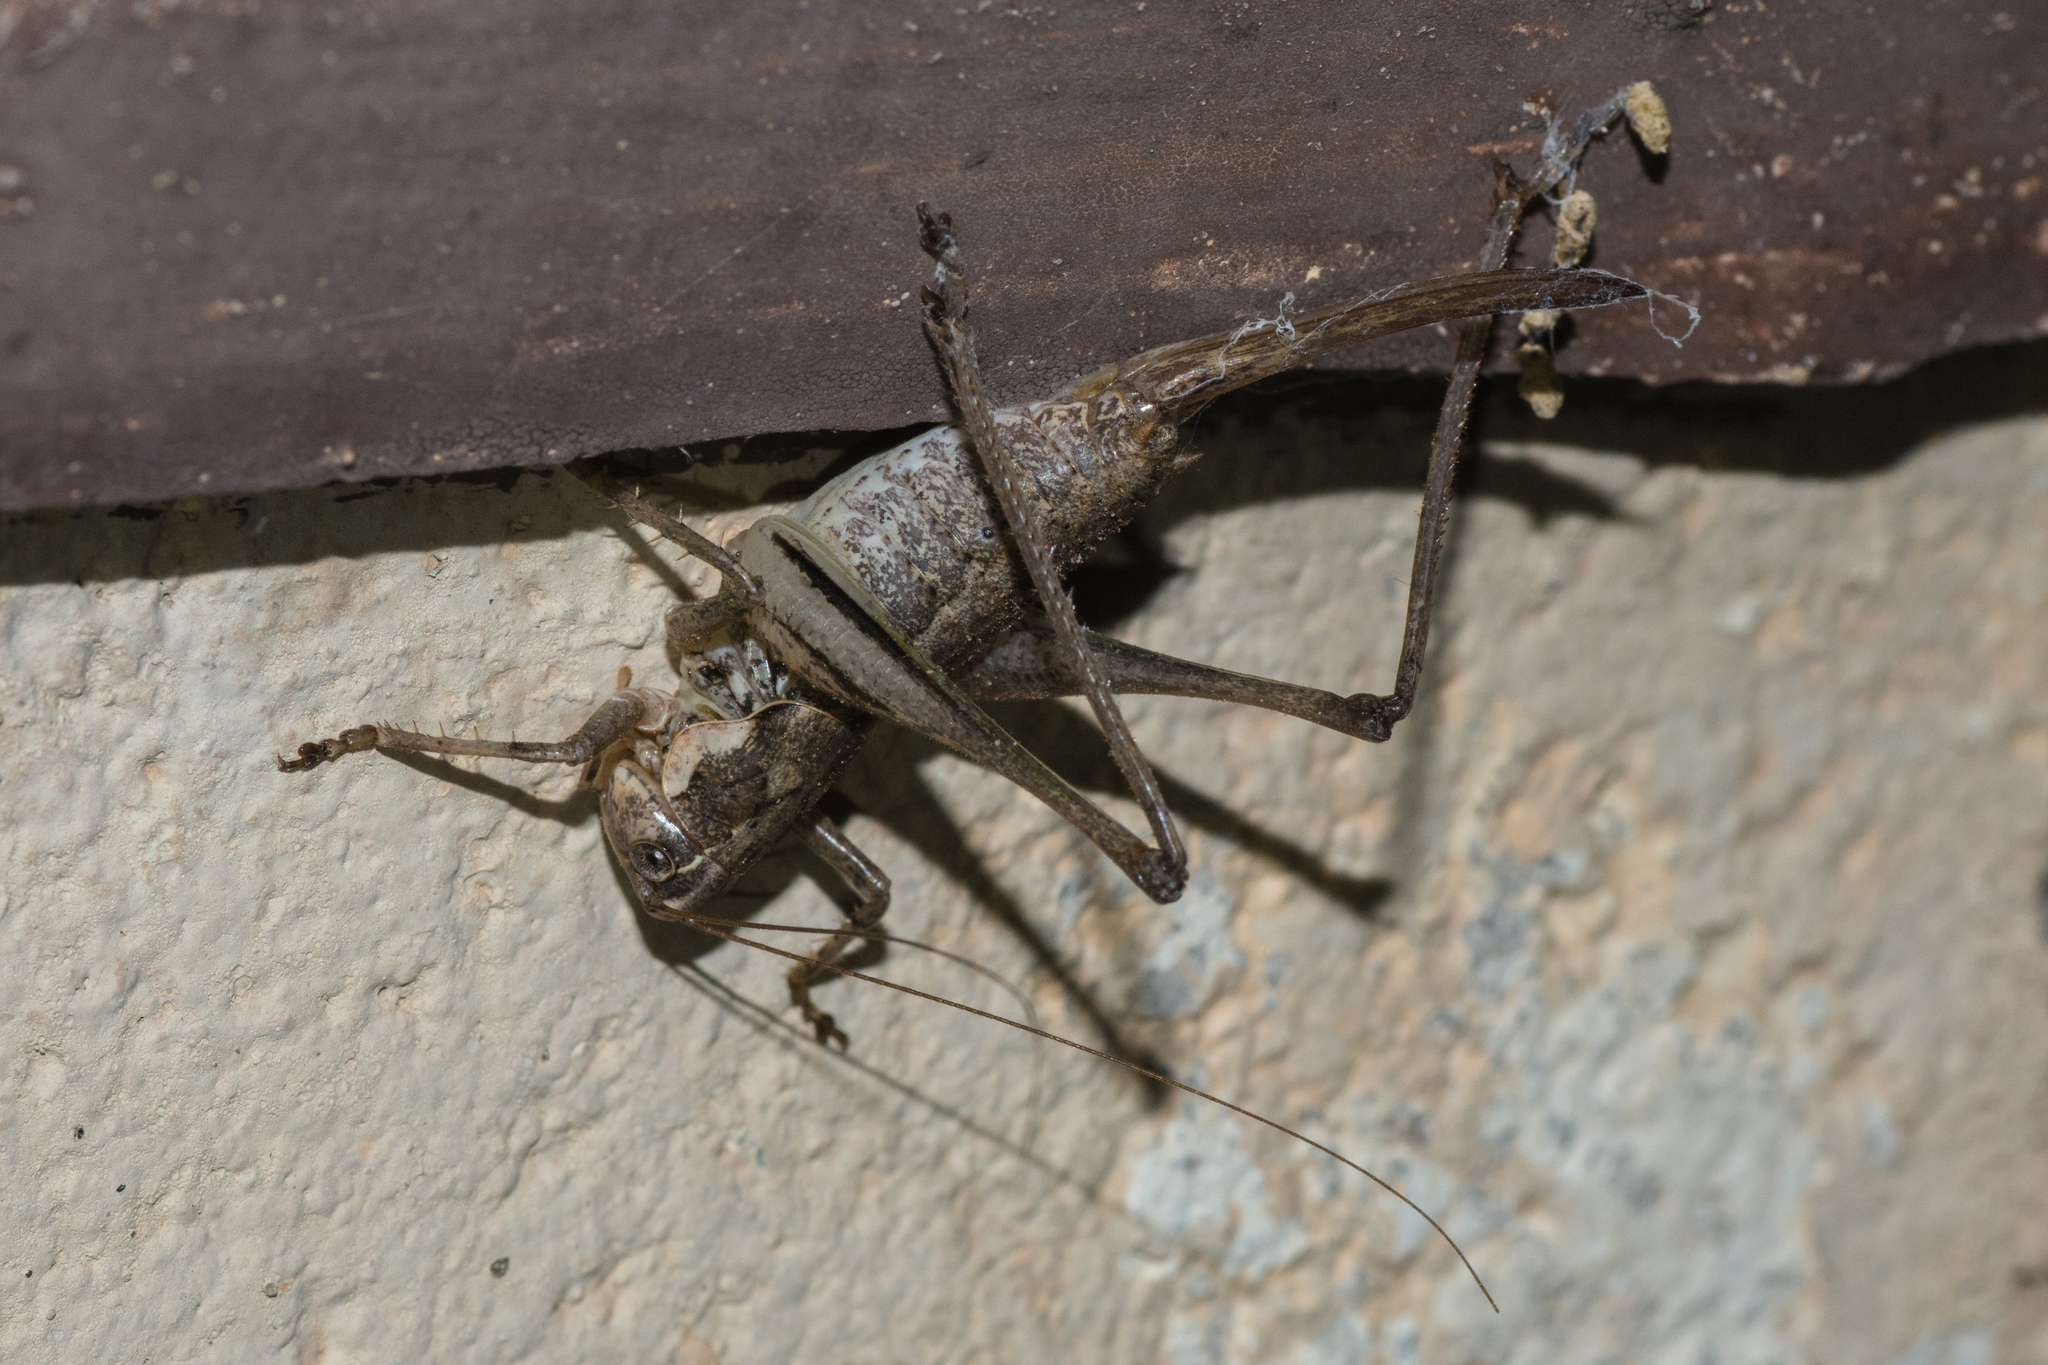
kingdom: Animalia
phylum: Arthropoda
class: Insecta
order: Orthoptera
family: Tettigoniidae
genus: Eremopedes
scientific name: Eremopedes balli
